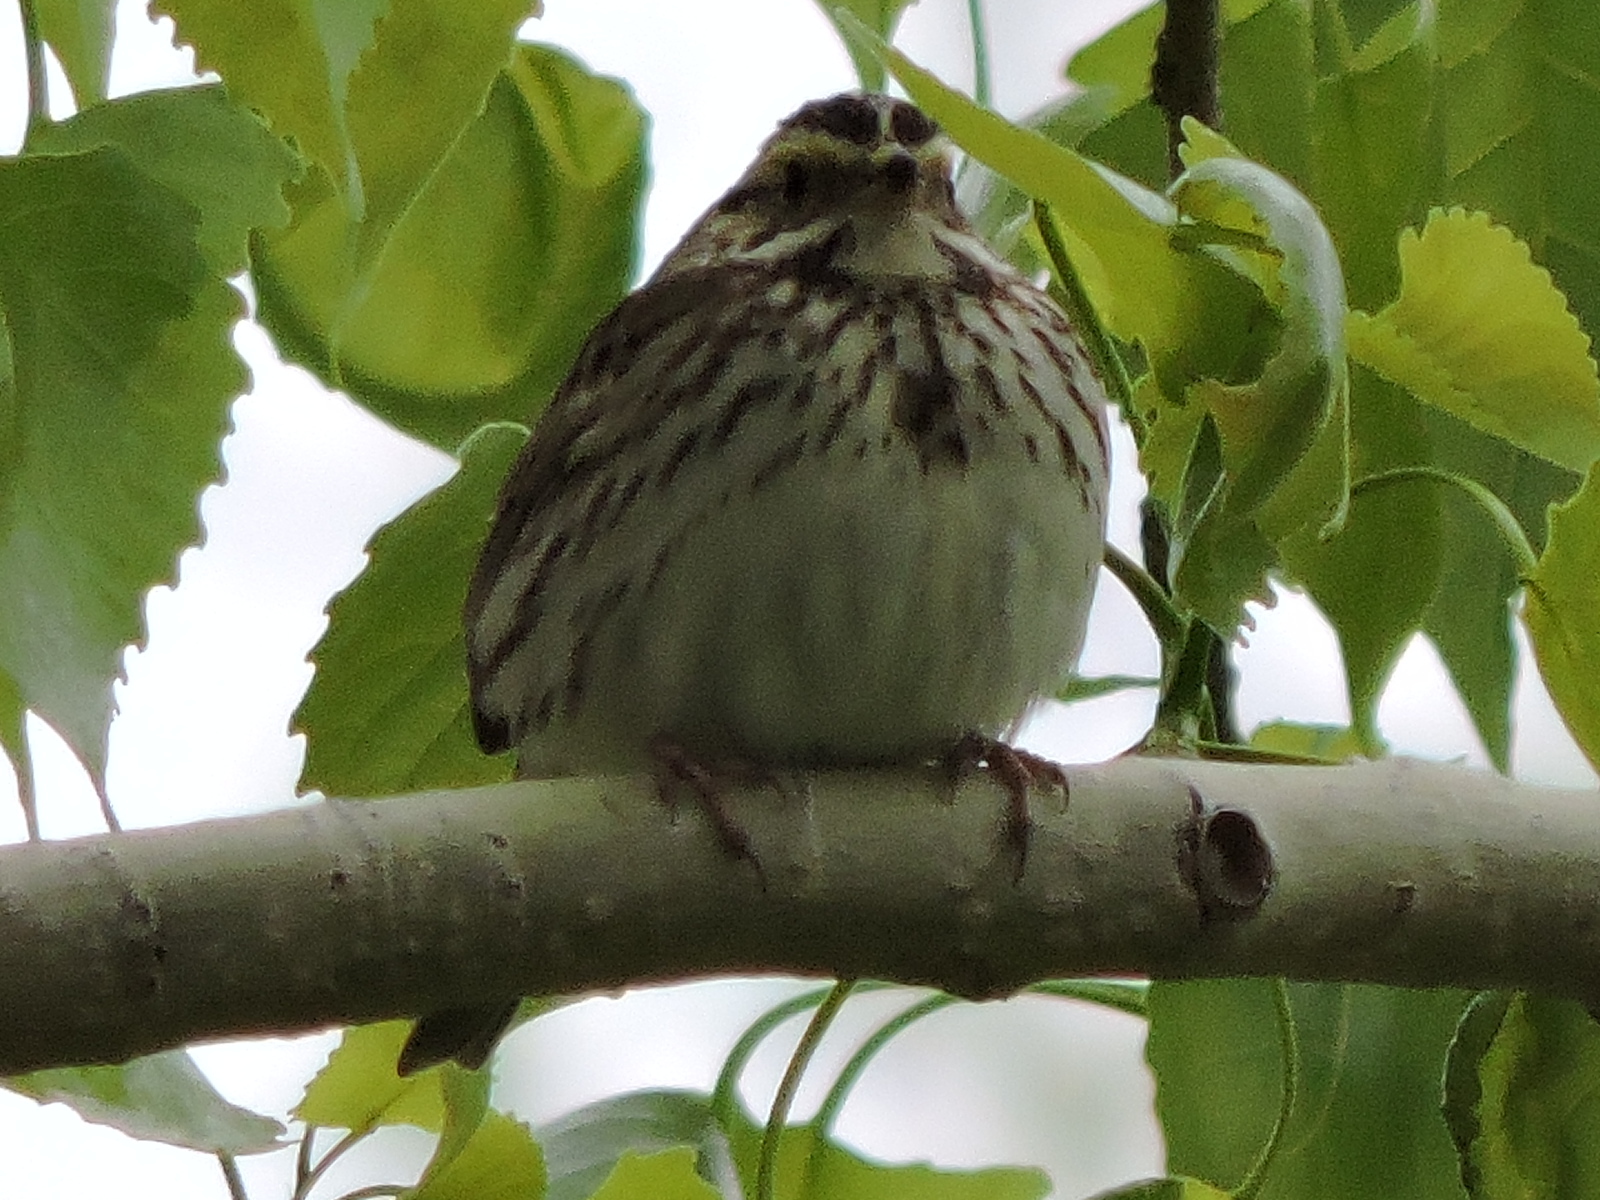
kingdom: Animalia
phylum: Chordata
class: Aves
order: Passeriformes
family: Passerellidae
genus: Passerculus
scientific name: Passerculus sandwichensis
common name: Savannah sparrow
